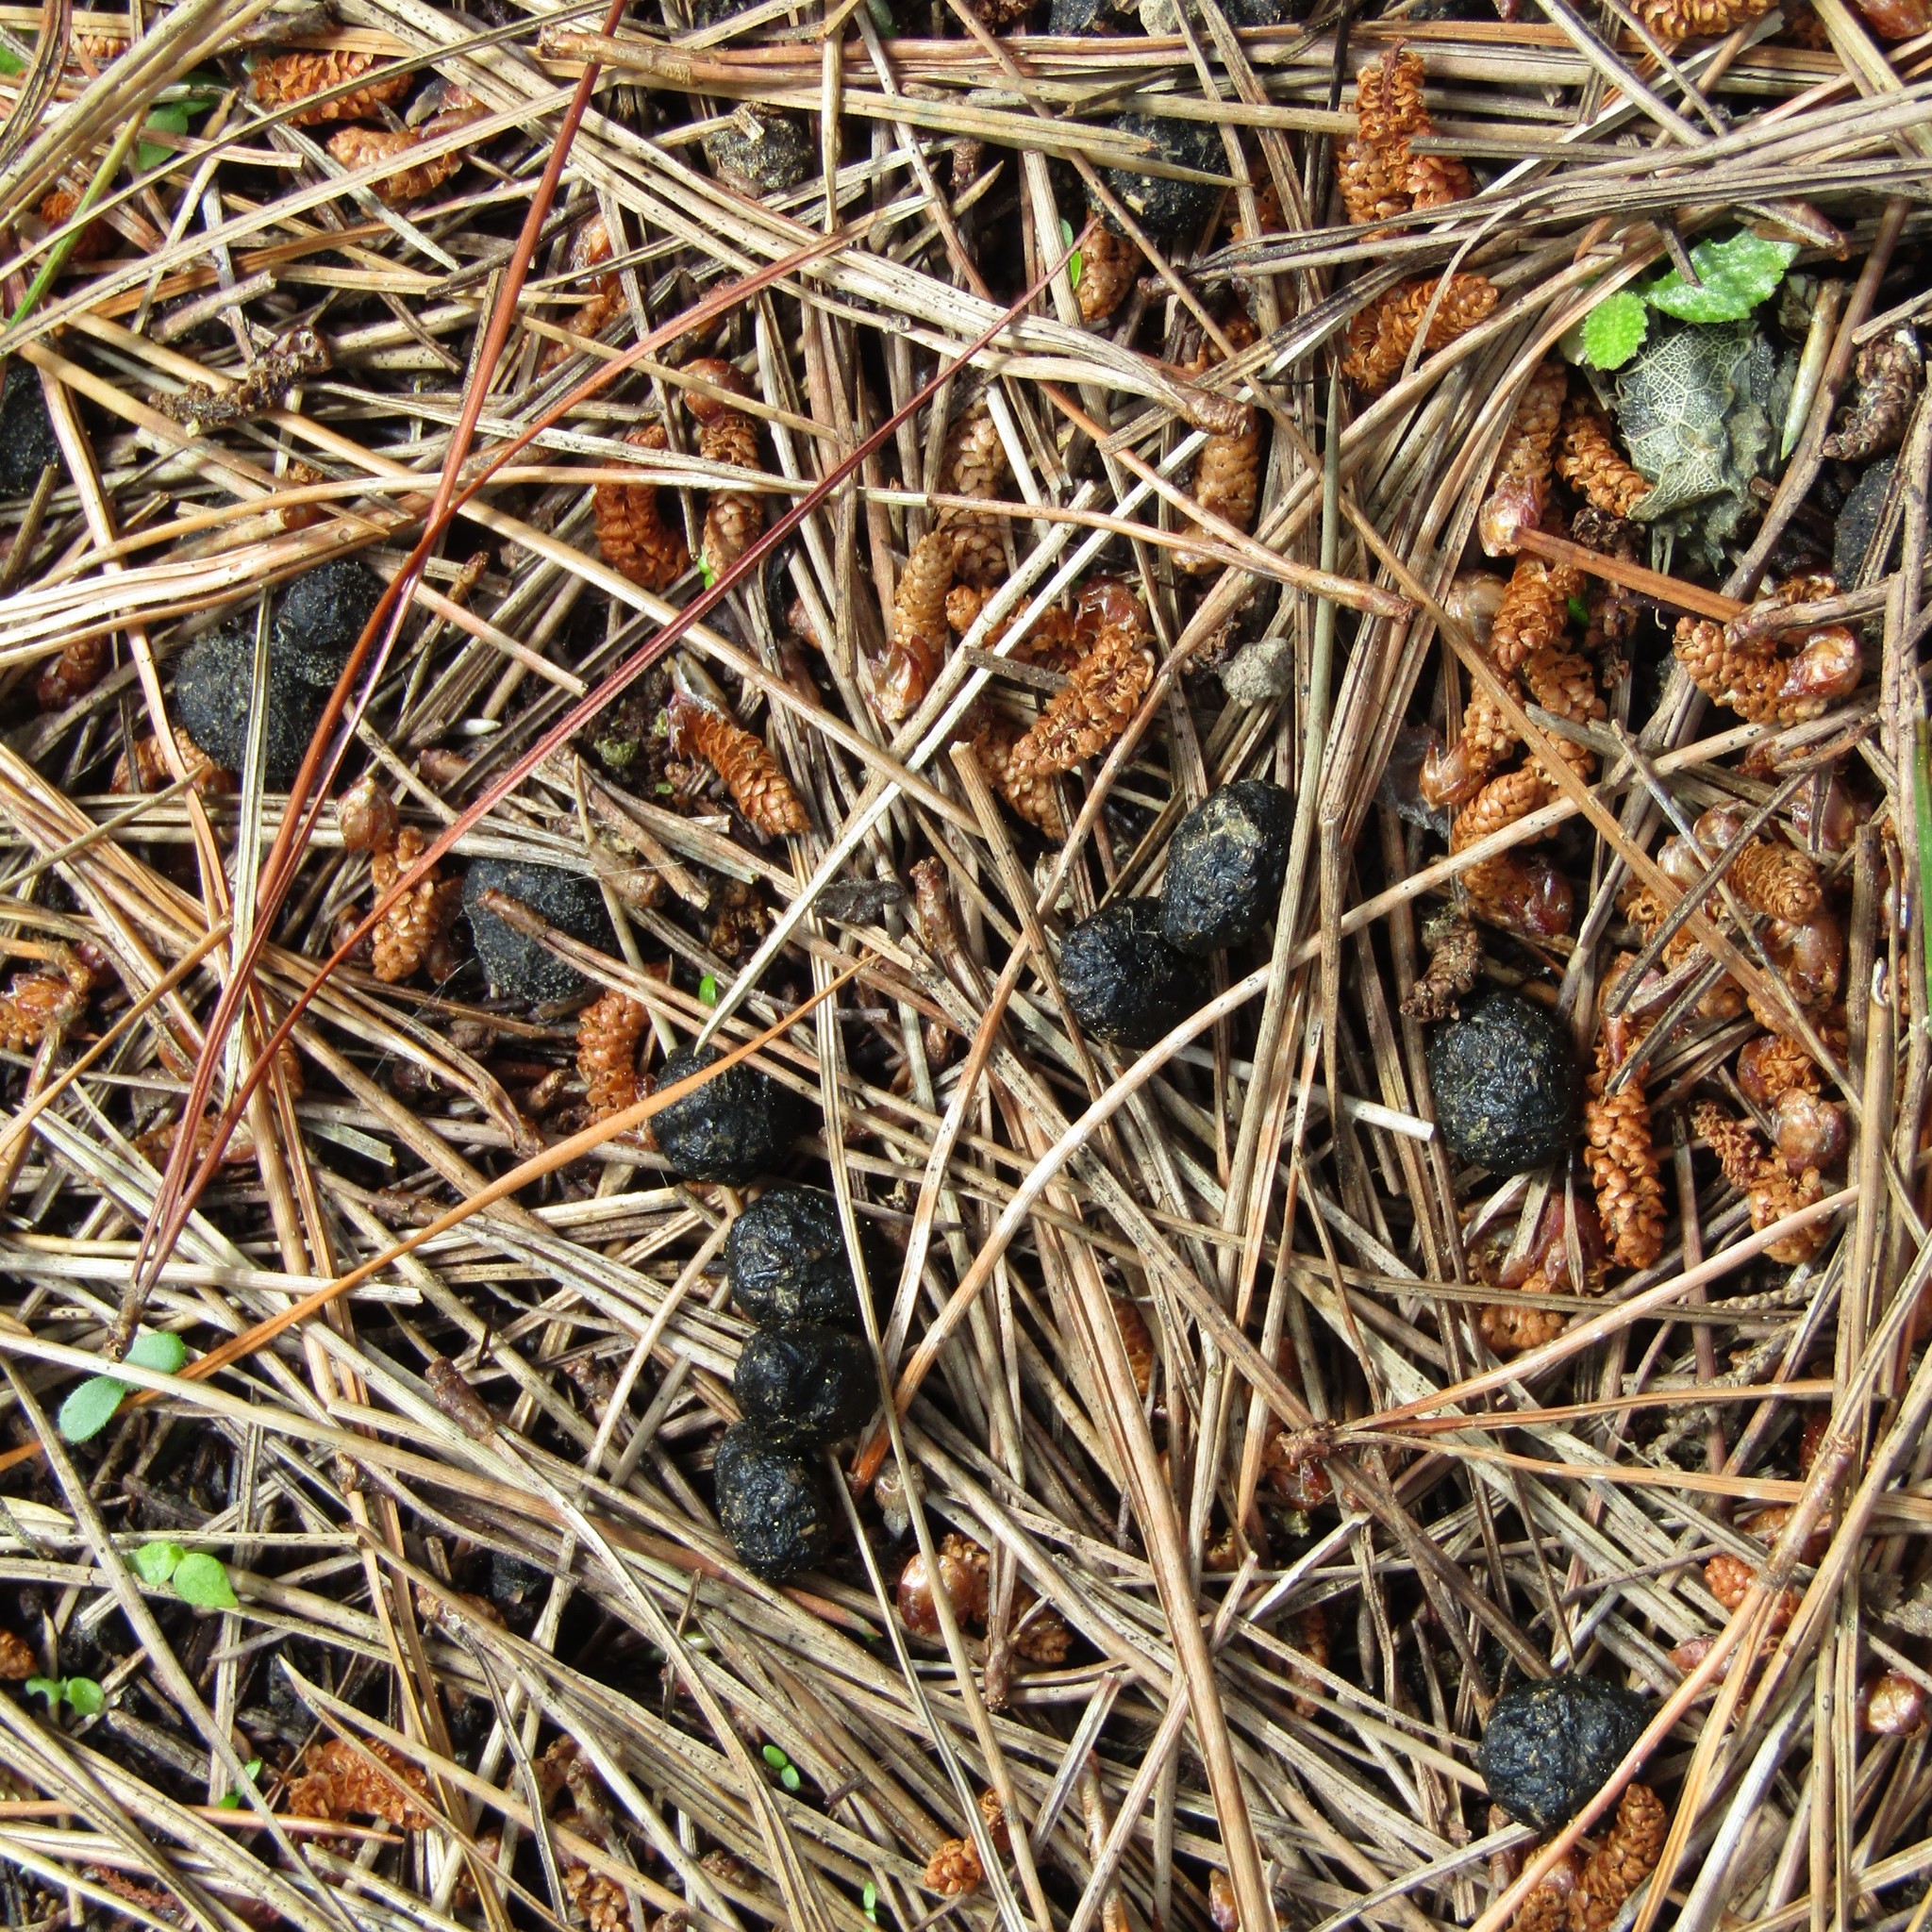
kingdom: Animalia
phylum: Chordata
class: Mammalia
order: Lagomorpha
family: Leporidae
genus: Oryctolagus
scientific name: Oryctolagus cuniculus
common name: European rabbit
